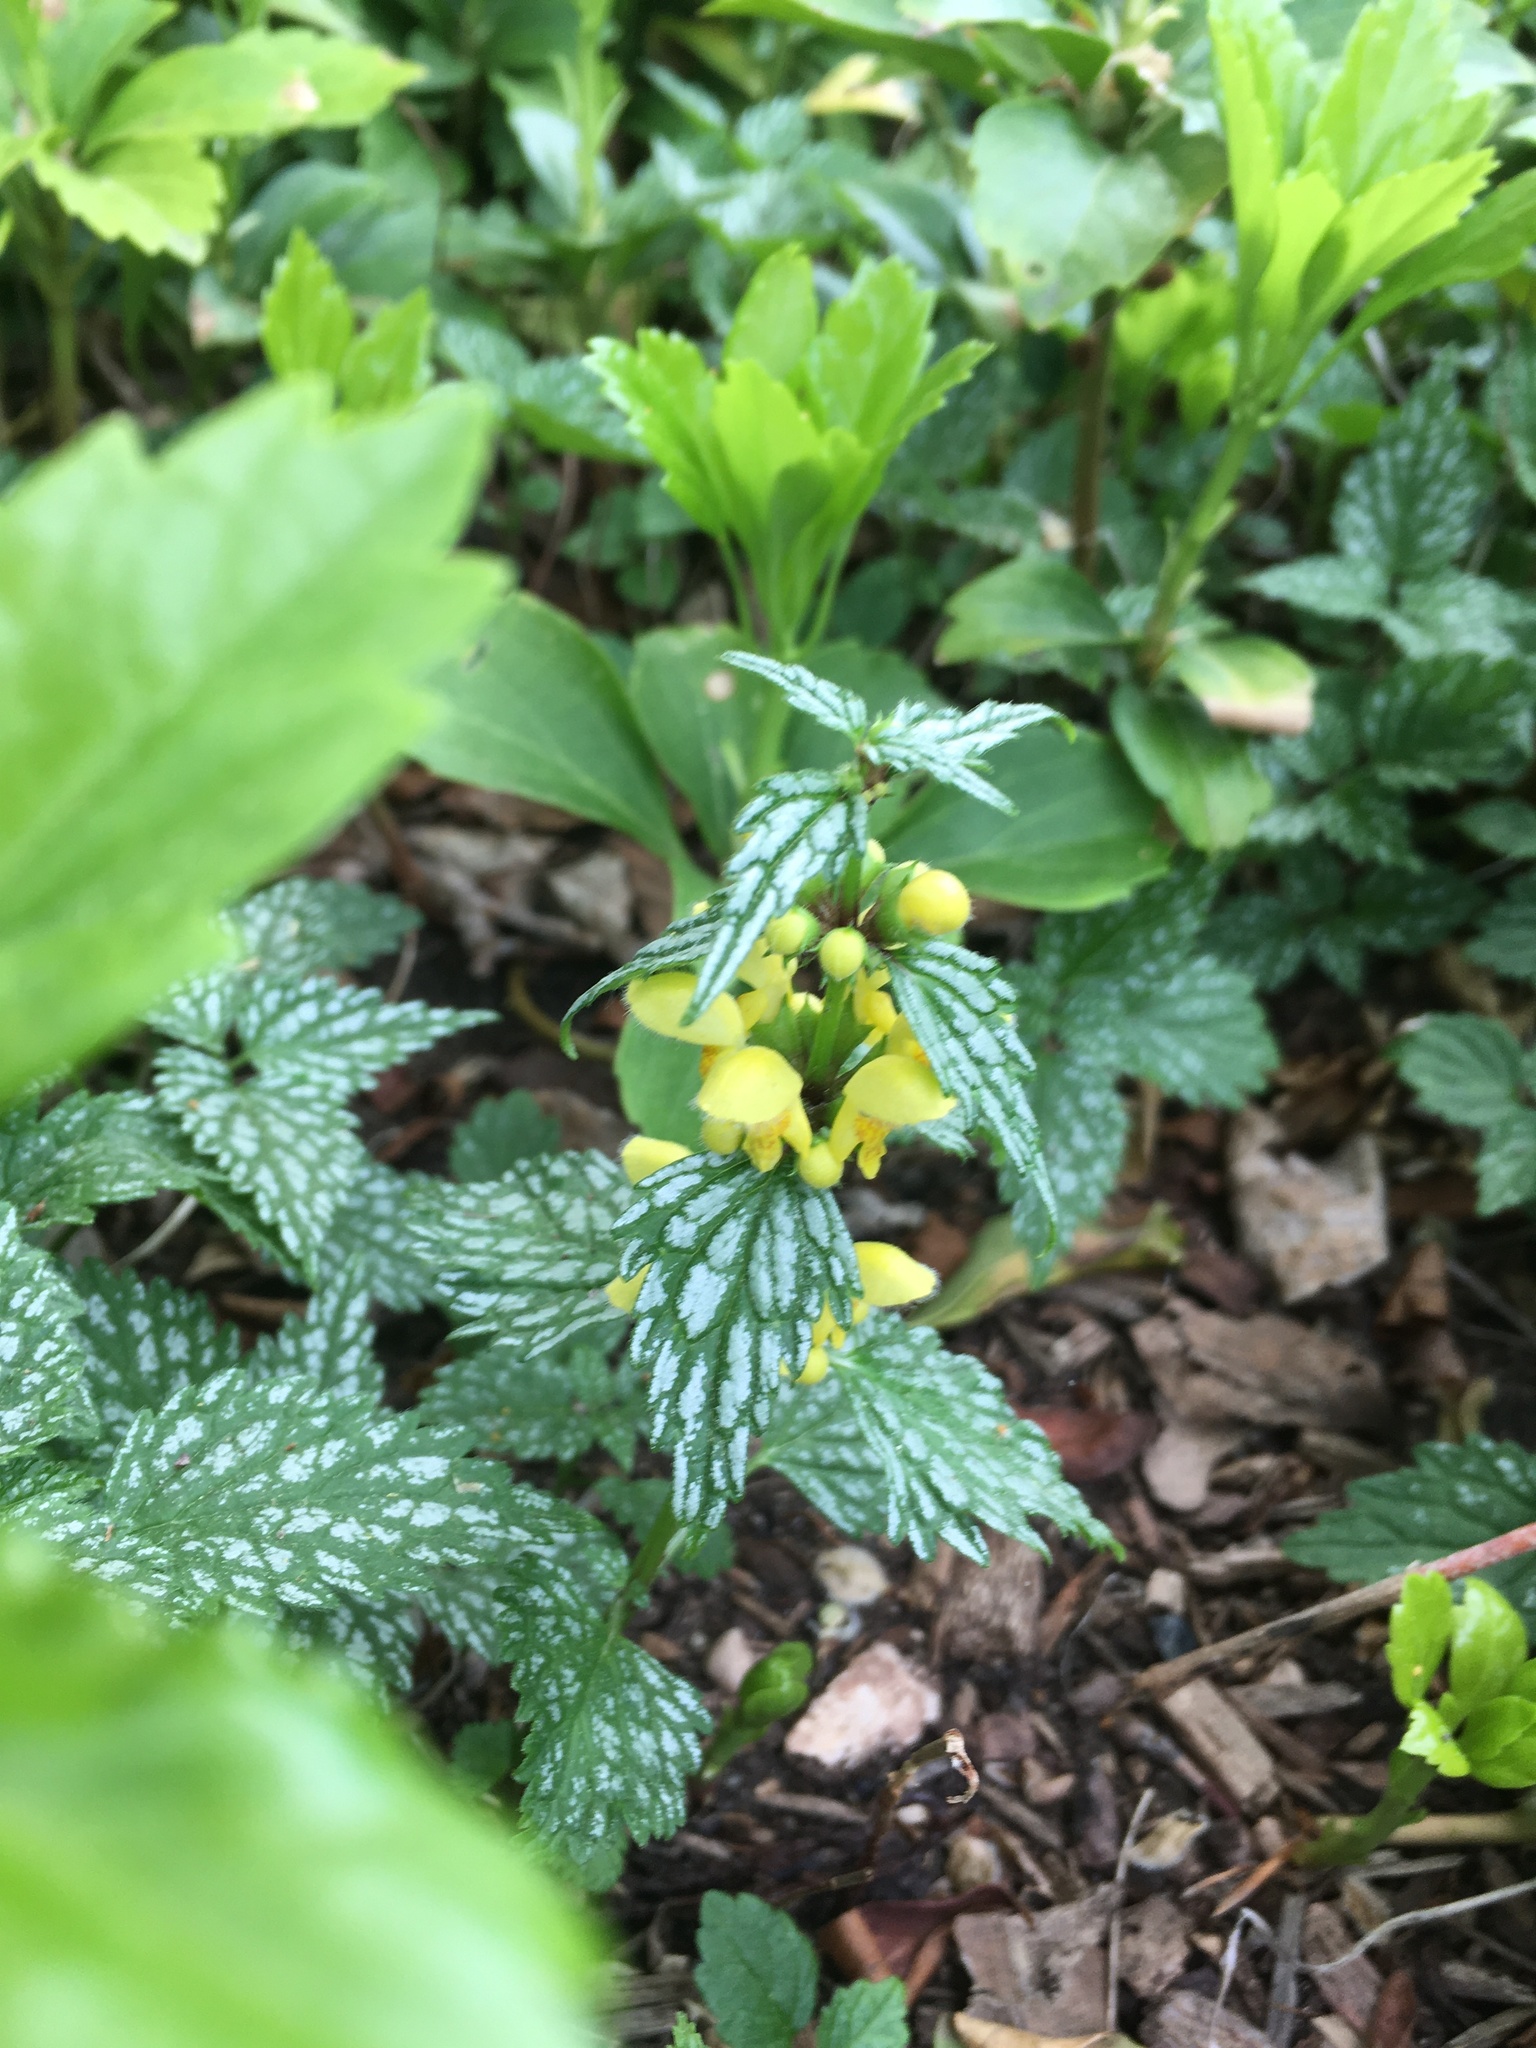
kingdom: Plantae
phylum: Tracheophyta
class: Magnoliopsida
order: Lamiales
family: Lamiaceae
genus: Lamium
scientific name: Lamium galeobdolon
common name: Yellow archangel
